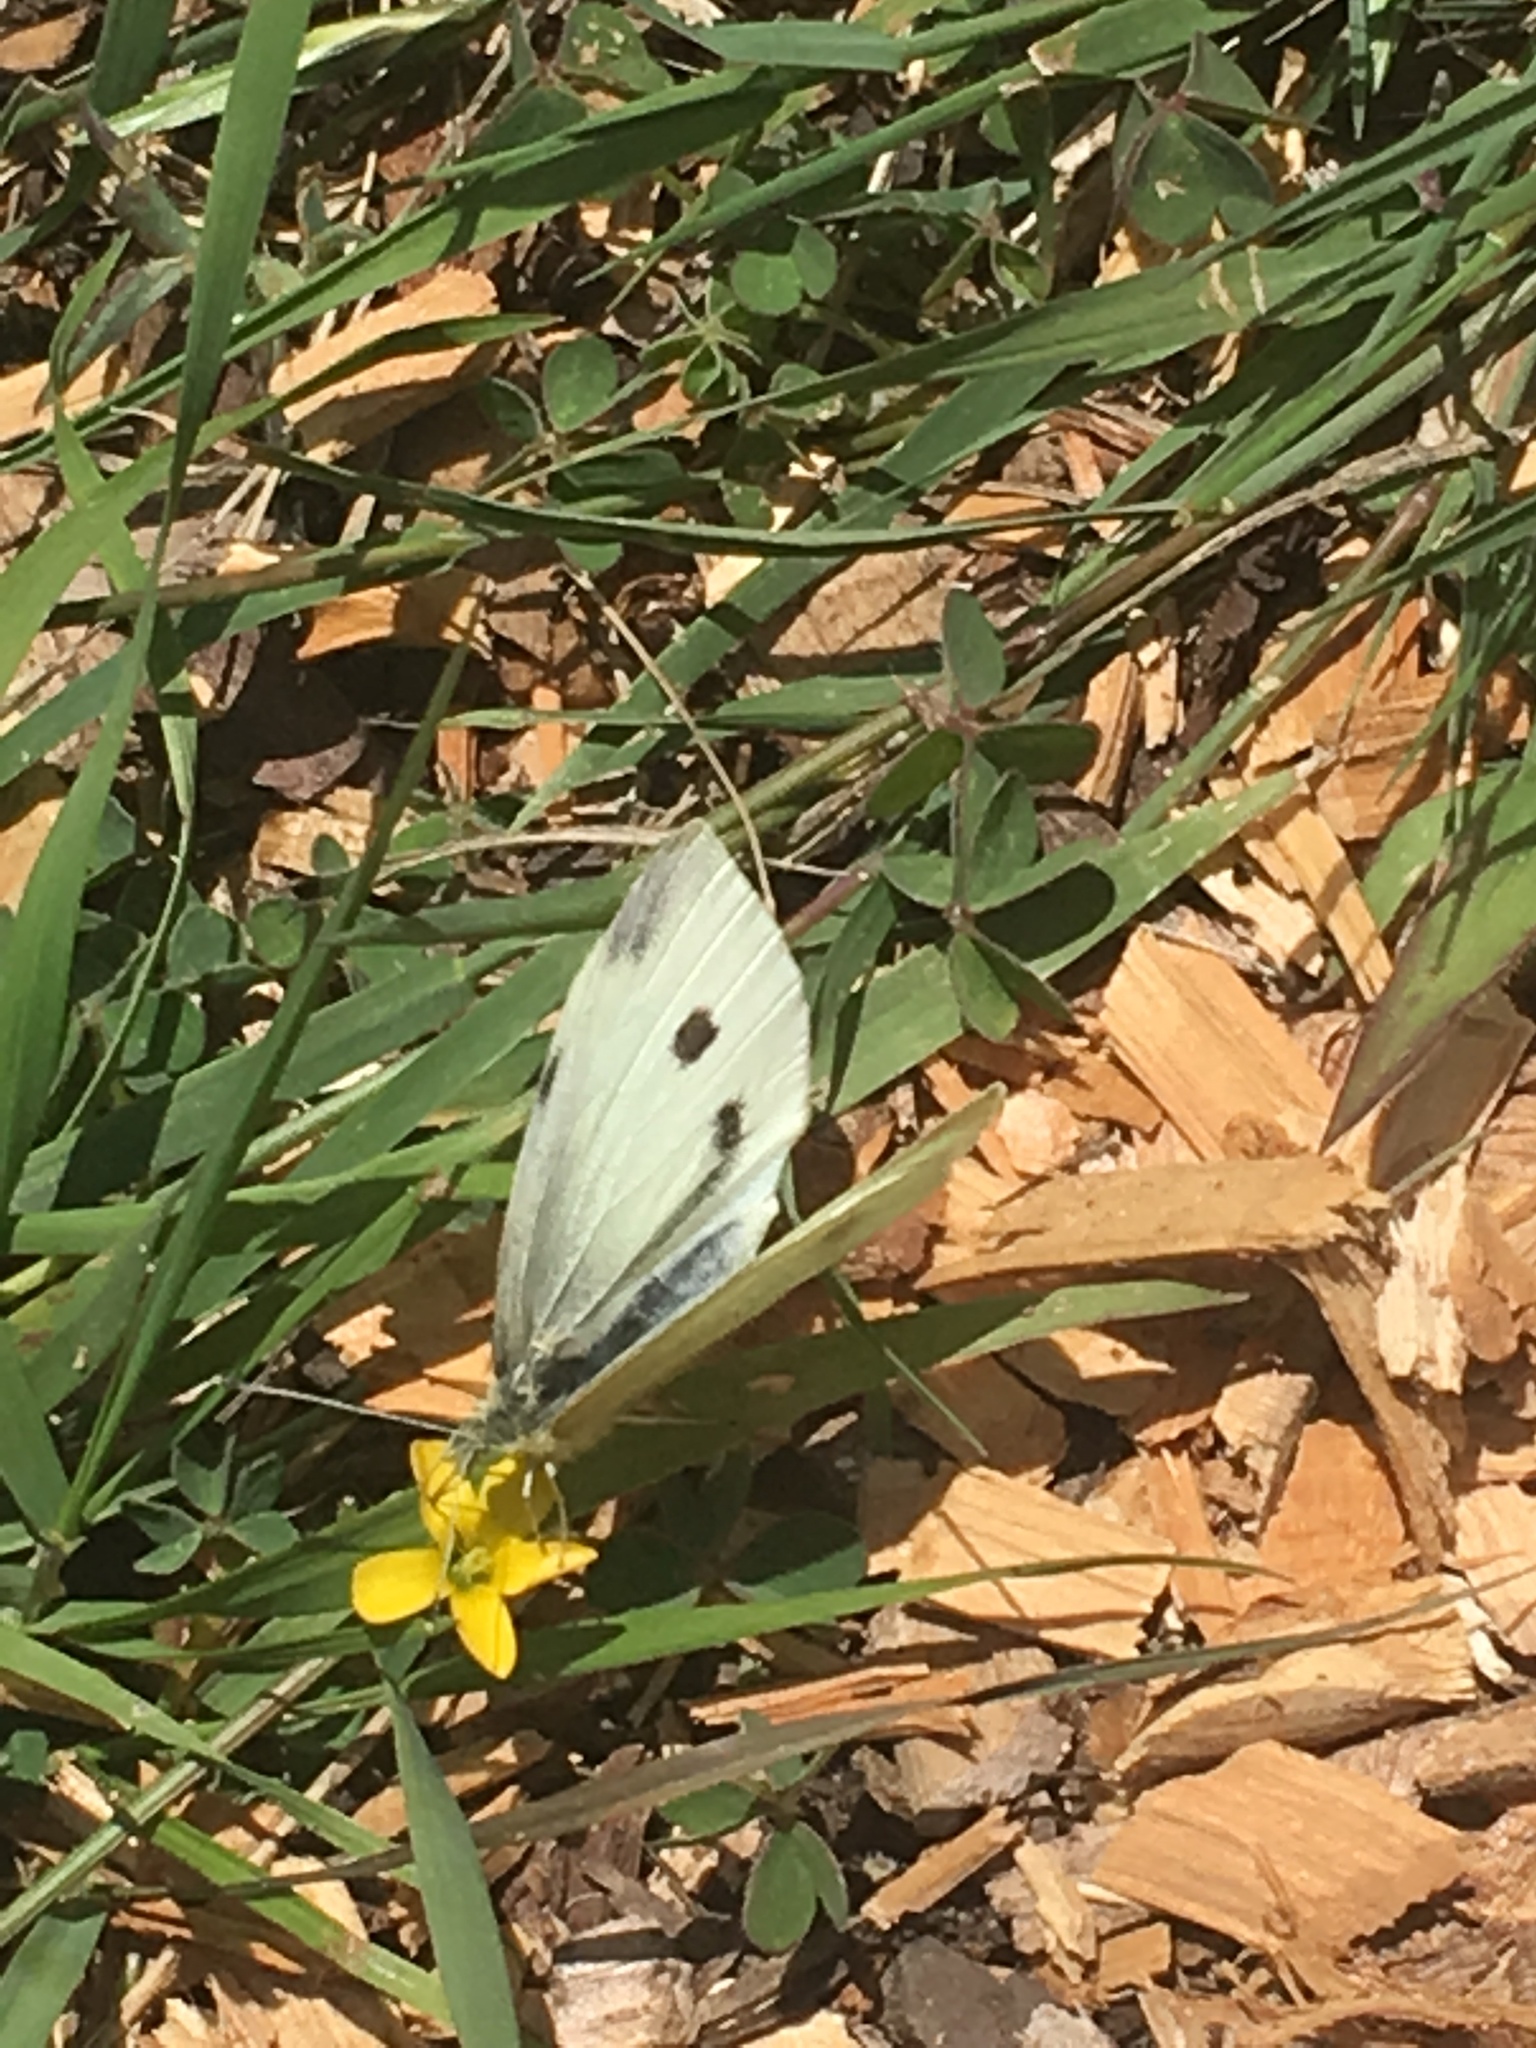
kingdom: Animalia
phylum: Arthropoda
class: Insecta
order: Lepidoptera
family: Pieridae
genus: Pieris
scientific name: Pieris rapae
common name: Small white
